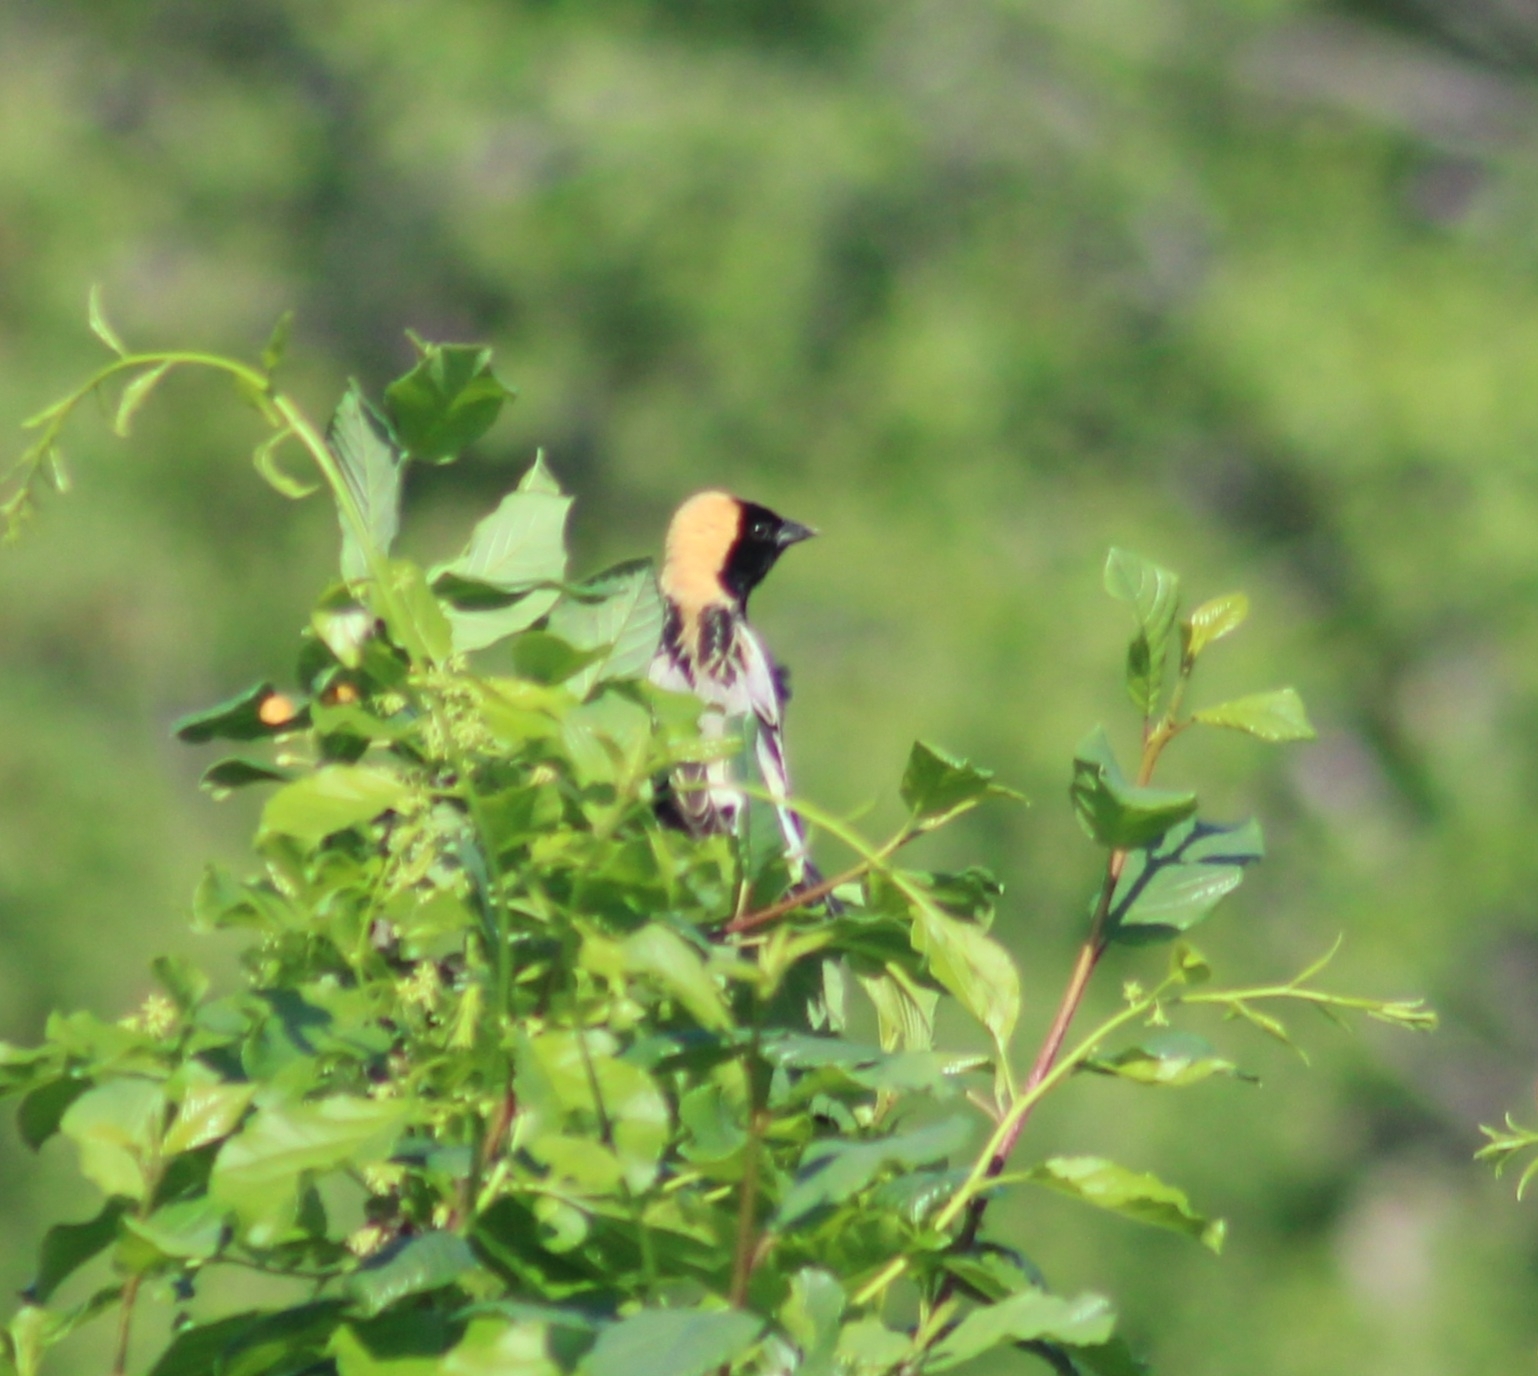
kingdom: Animalia
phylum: Chordata
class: Aves
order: Passeriformes
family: Icteridae
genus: Dolichonyx
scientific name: Dolichonyx oryzivorus
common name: Bobolink
